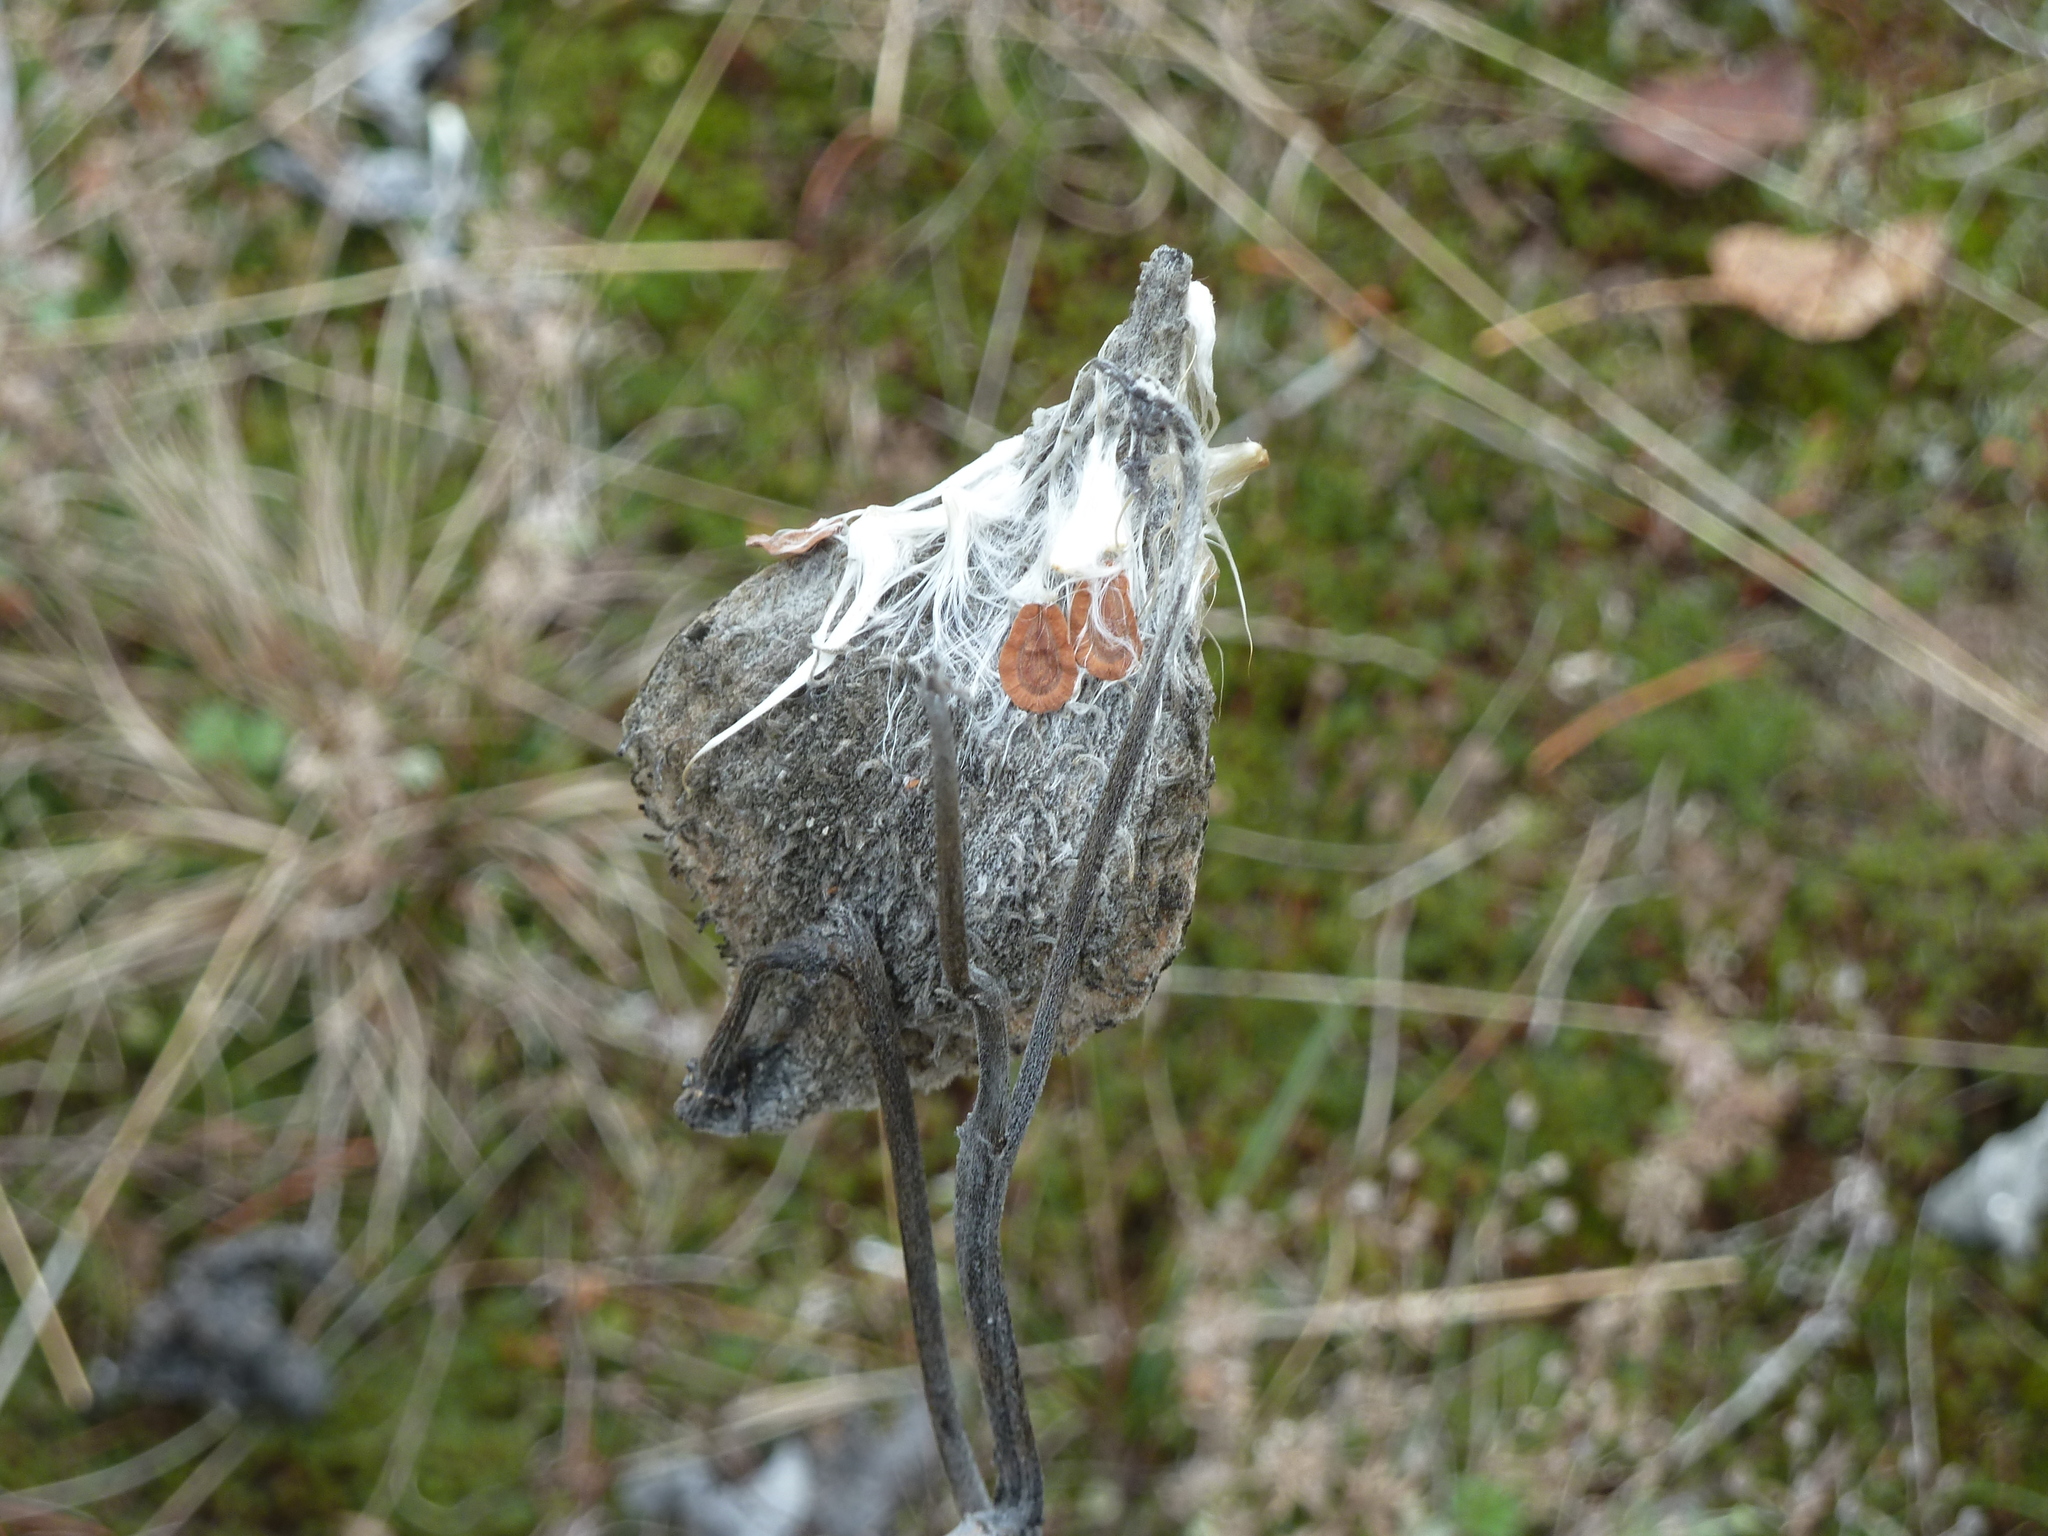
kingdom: Plantae
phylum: Tracheophyta
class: Magnoliopsida
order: Gentianales
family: Apocynaceae
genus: Asclepias
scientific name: Asclepias syriaca
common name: Common milkweed
